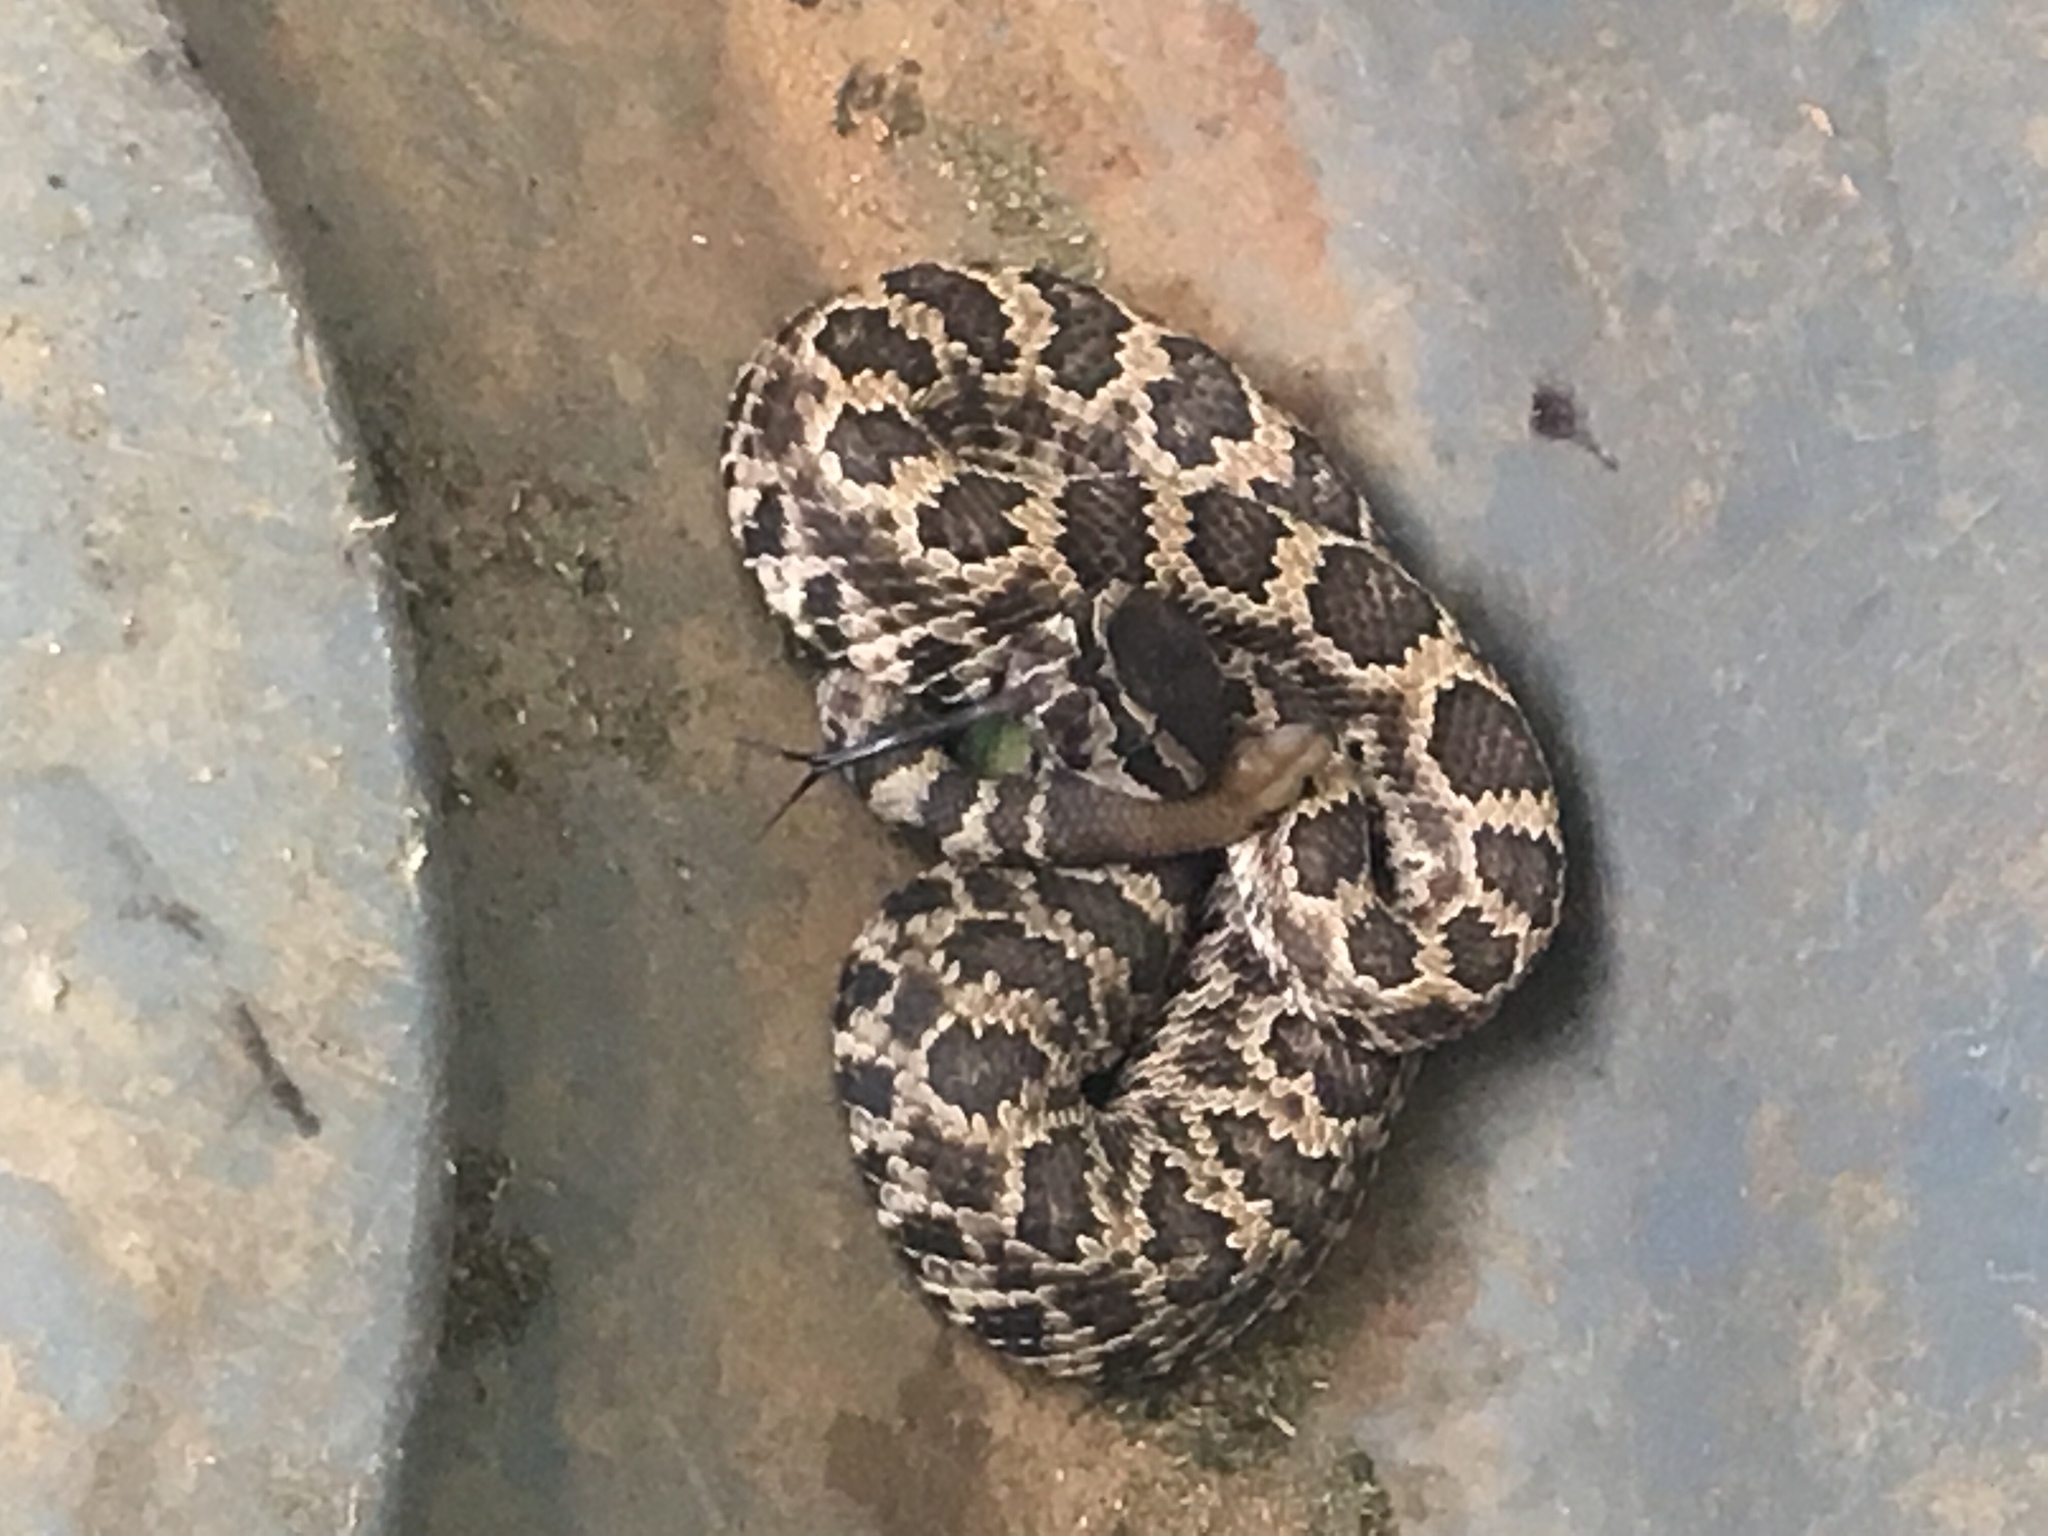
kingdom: Animalia
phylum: Chordata
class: Squamata
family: Viperidae
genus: Crotalus
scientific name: Crotalus oreganus
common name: Abyssus
